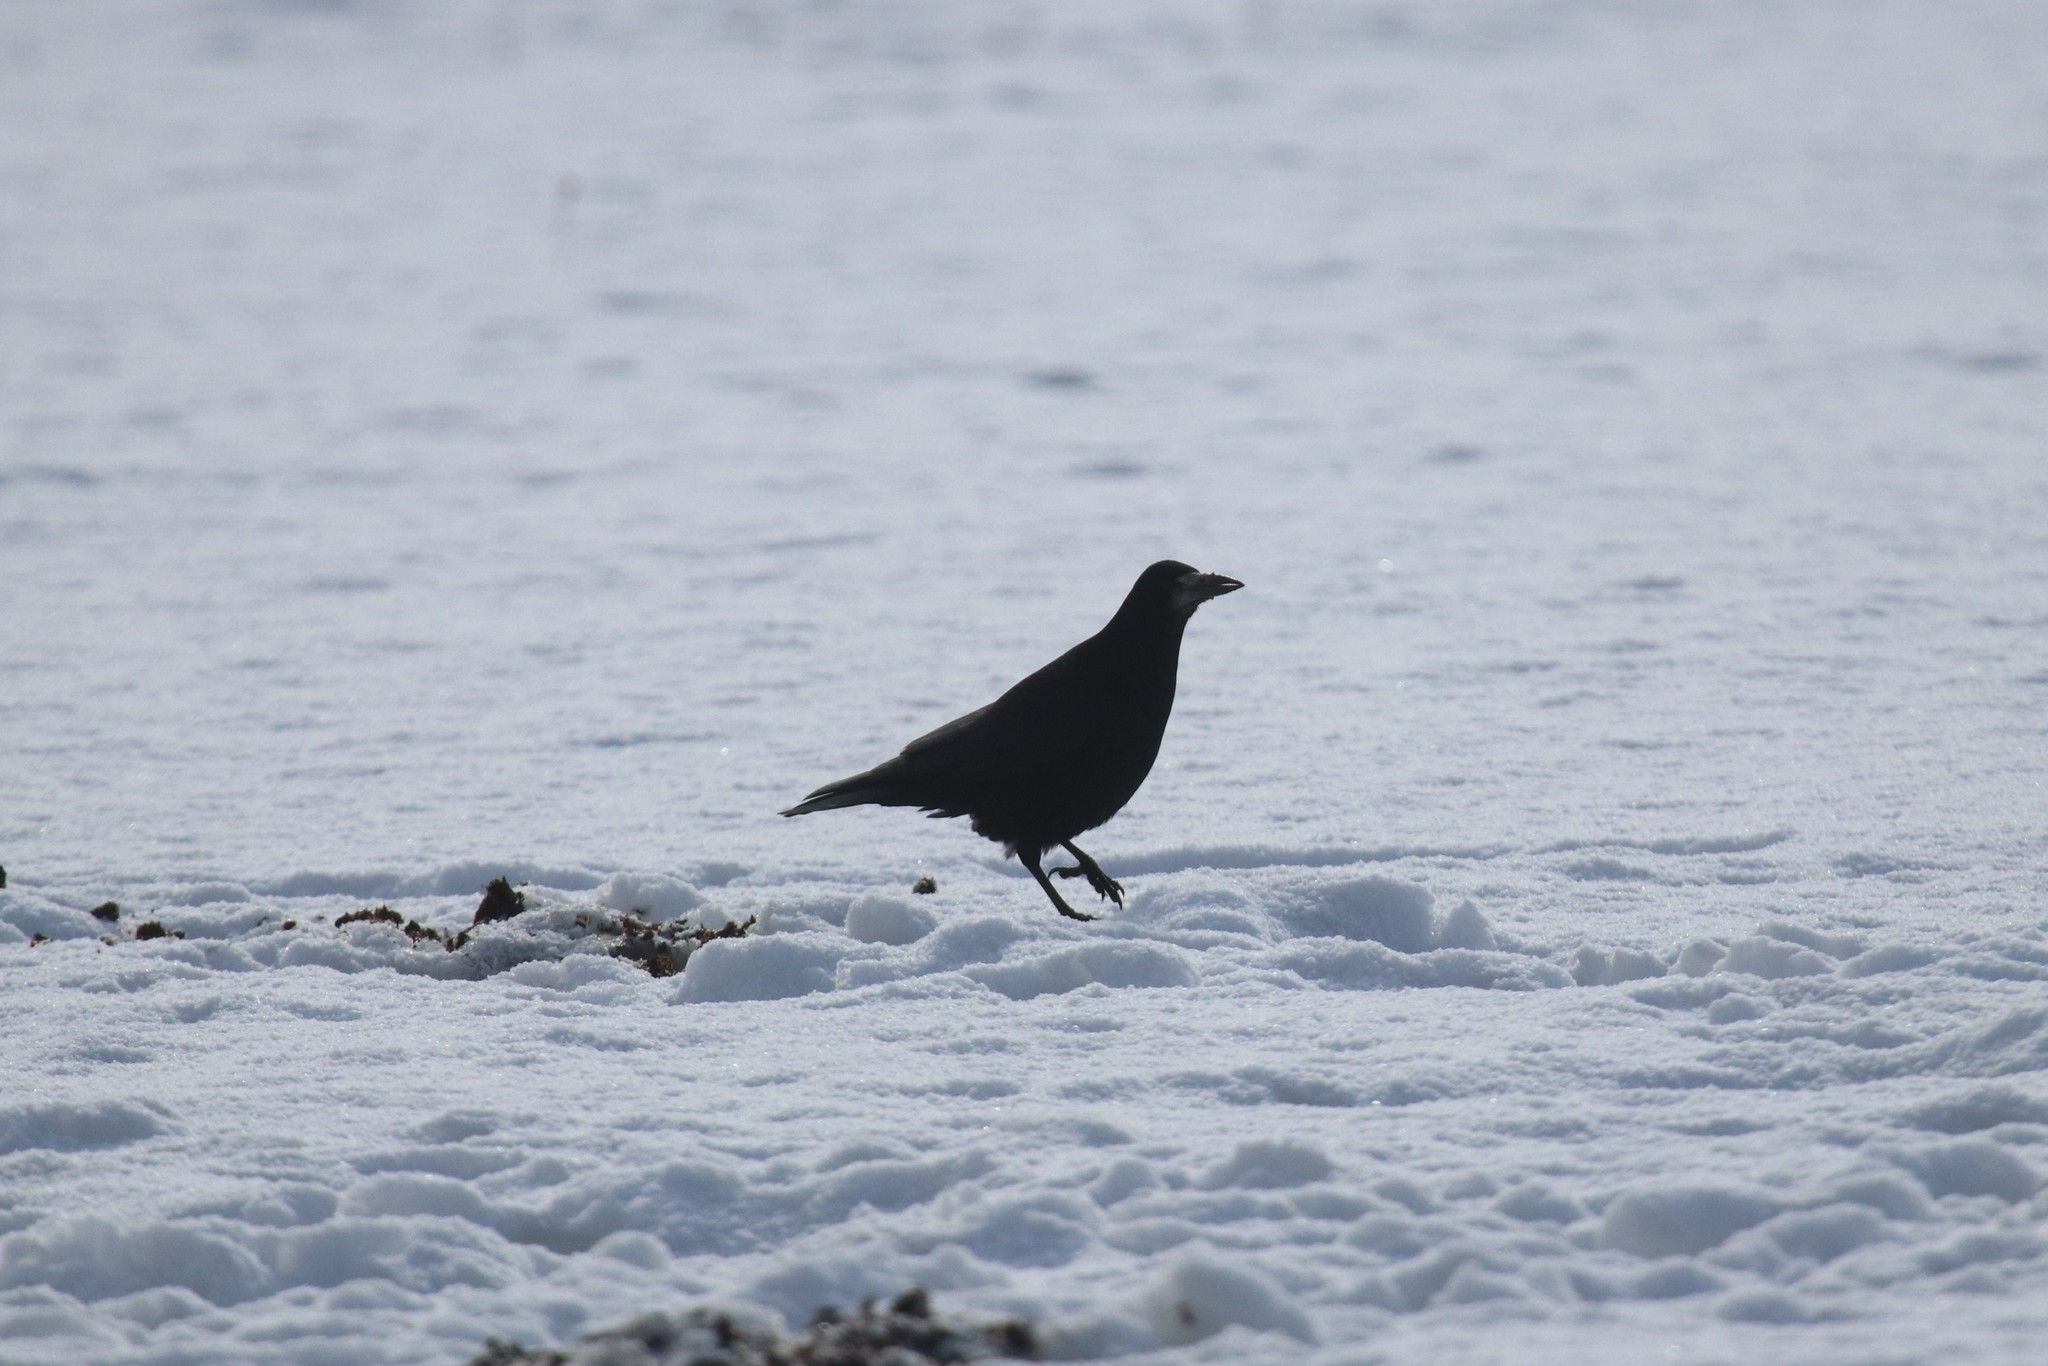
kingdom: Animalia
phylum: Chordata
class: Aves
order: Passeriformes
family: Corvidae
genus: Corvus
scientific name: Corvus frugilegus
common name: Rook
